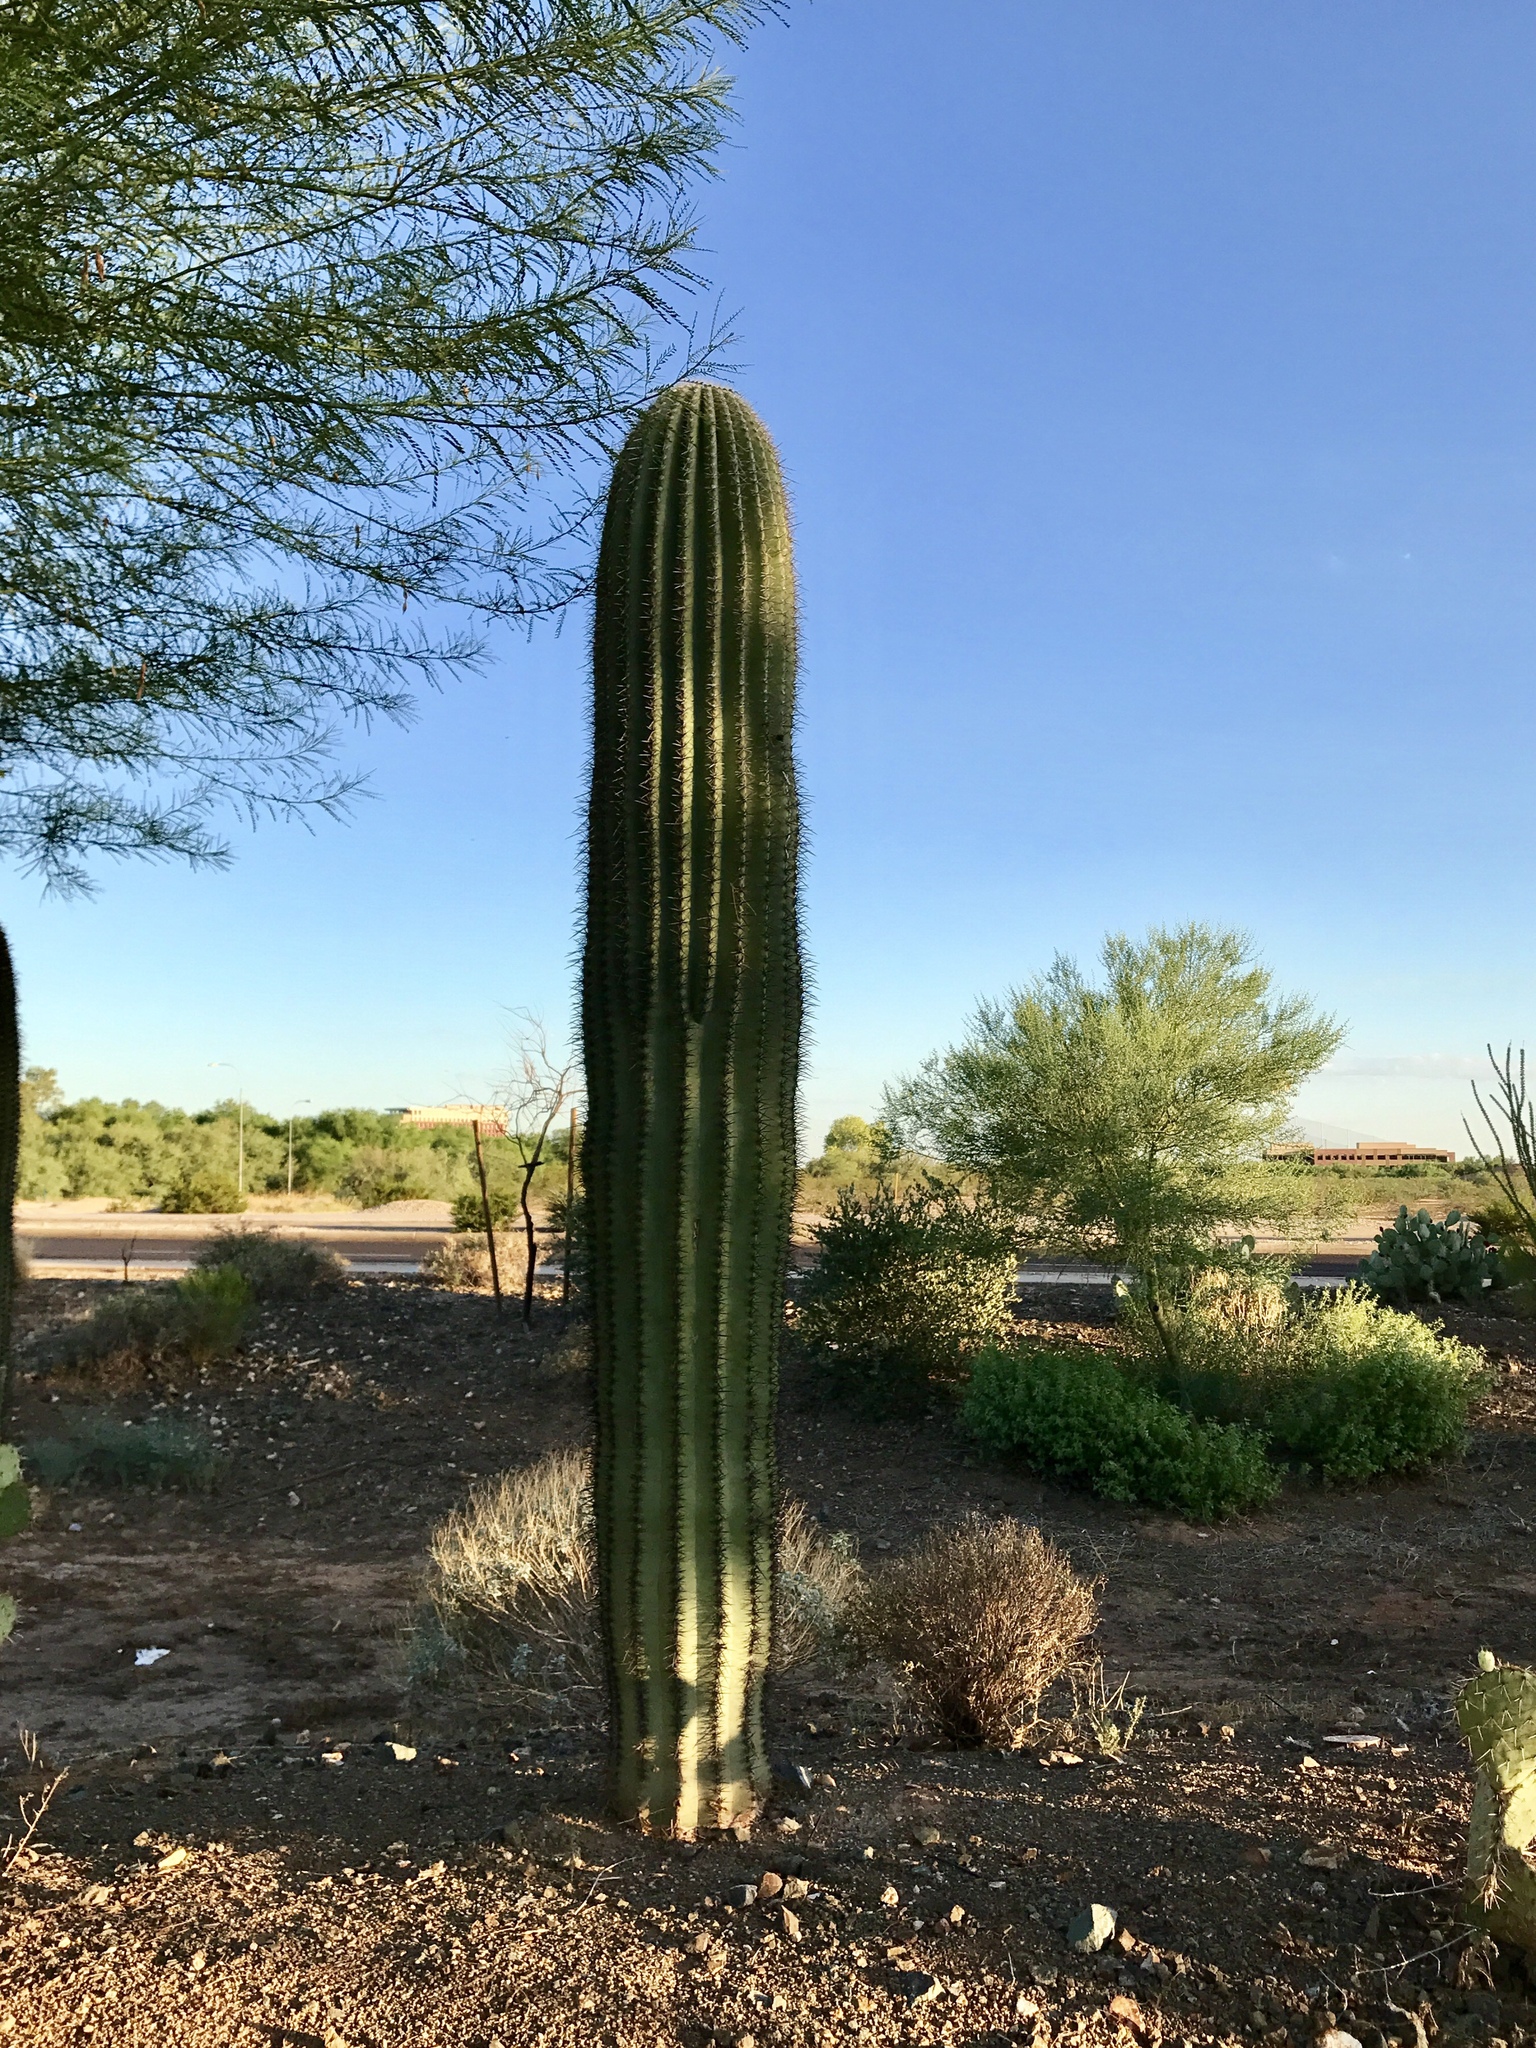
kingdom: Plantae
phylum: Tracheophyta
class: Magnoliopsida
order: Caryophyllales
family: Cactaceae
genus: Carnegiea
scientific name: Carnegiea gigantea
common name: Saguaro
